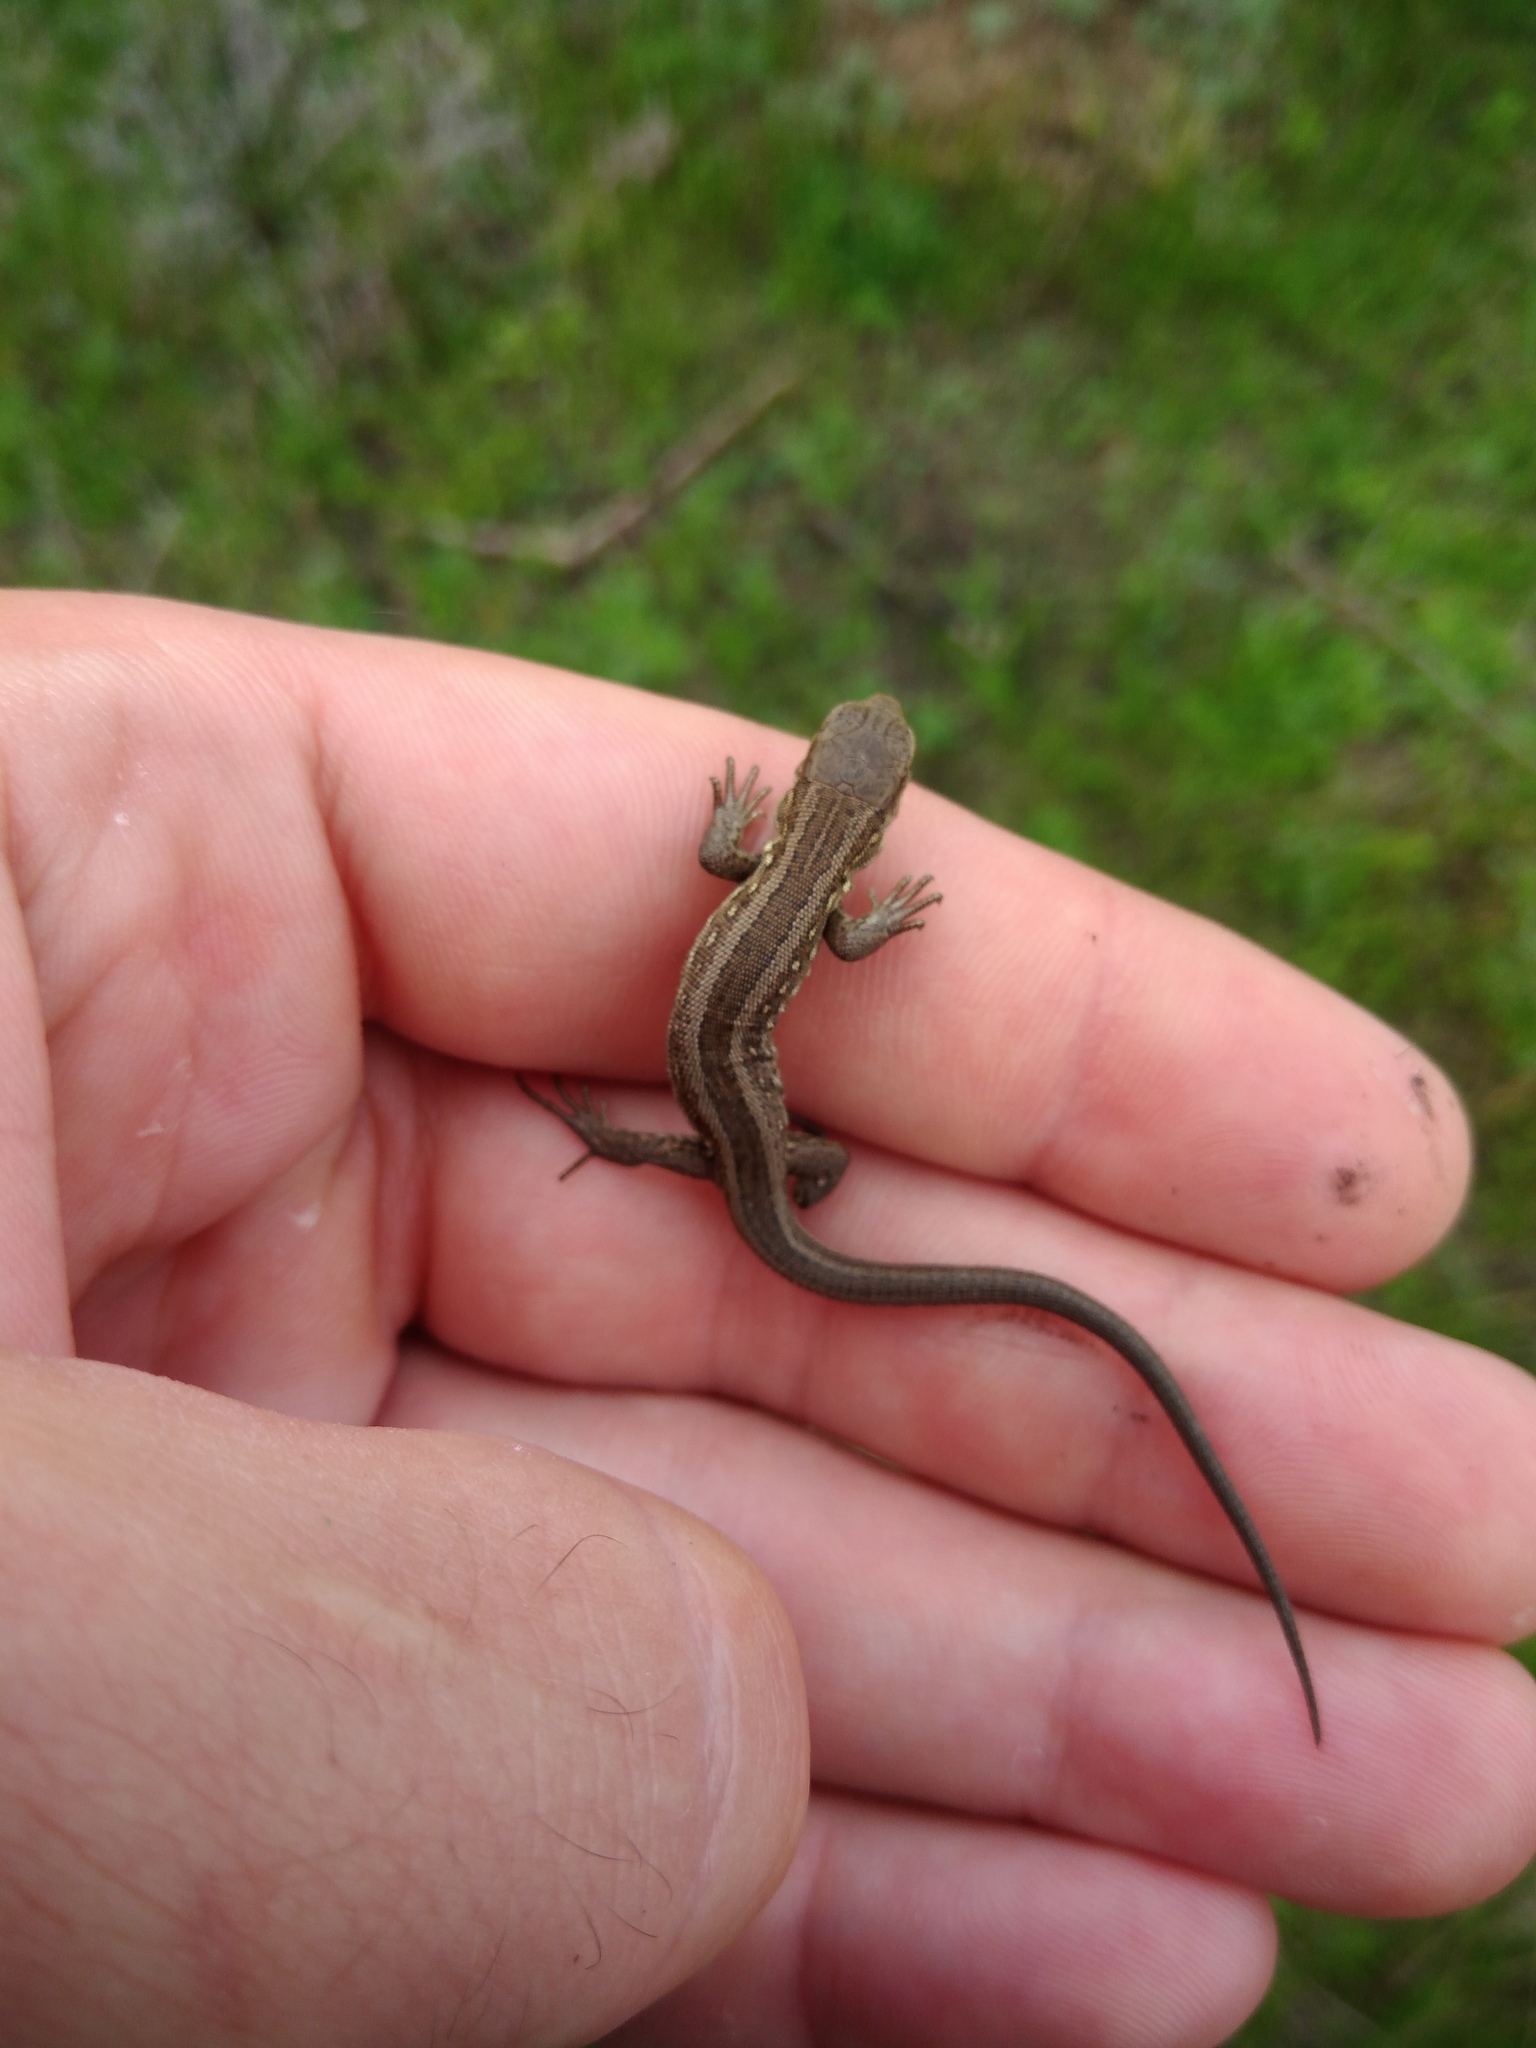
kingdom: Animalia
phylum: Chordata
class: Squamata
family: Lacertidae
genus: Lacerta
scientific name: Lacerta agilis
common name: Sand lizard
